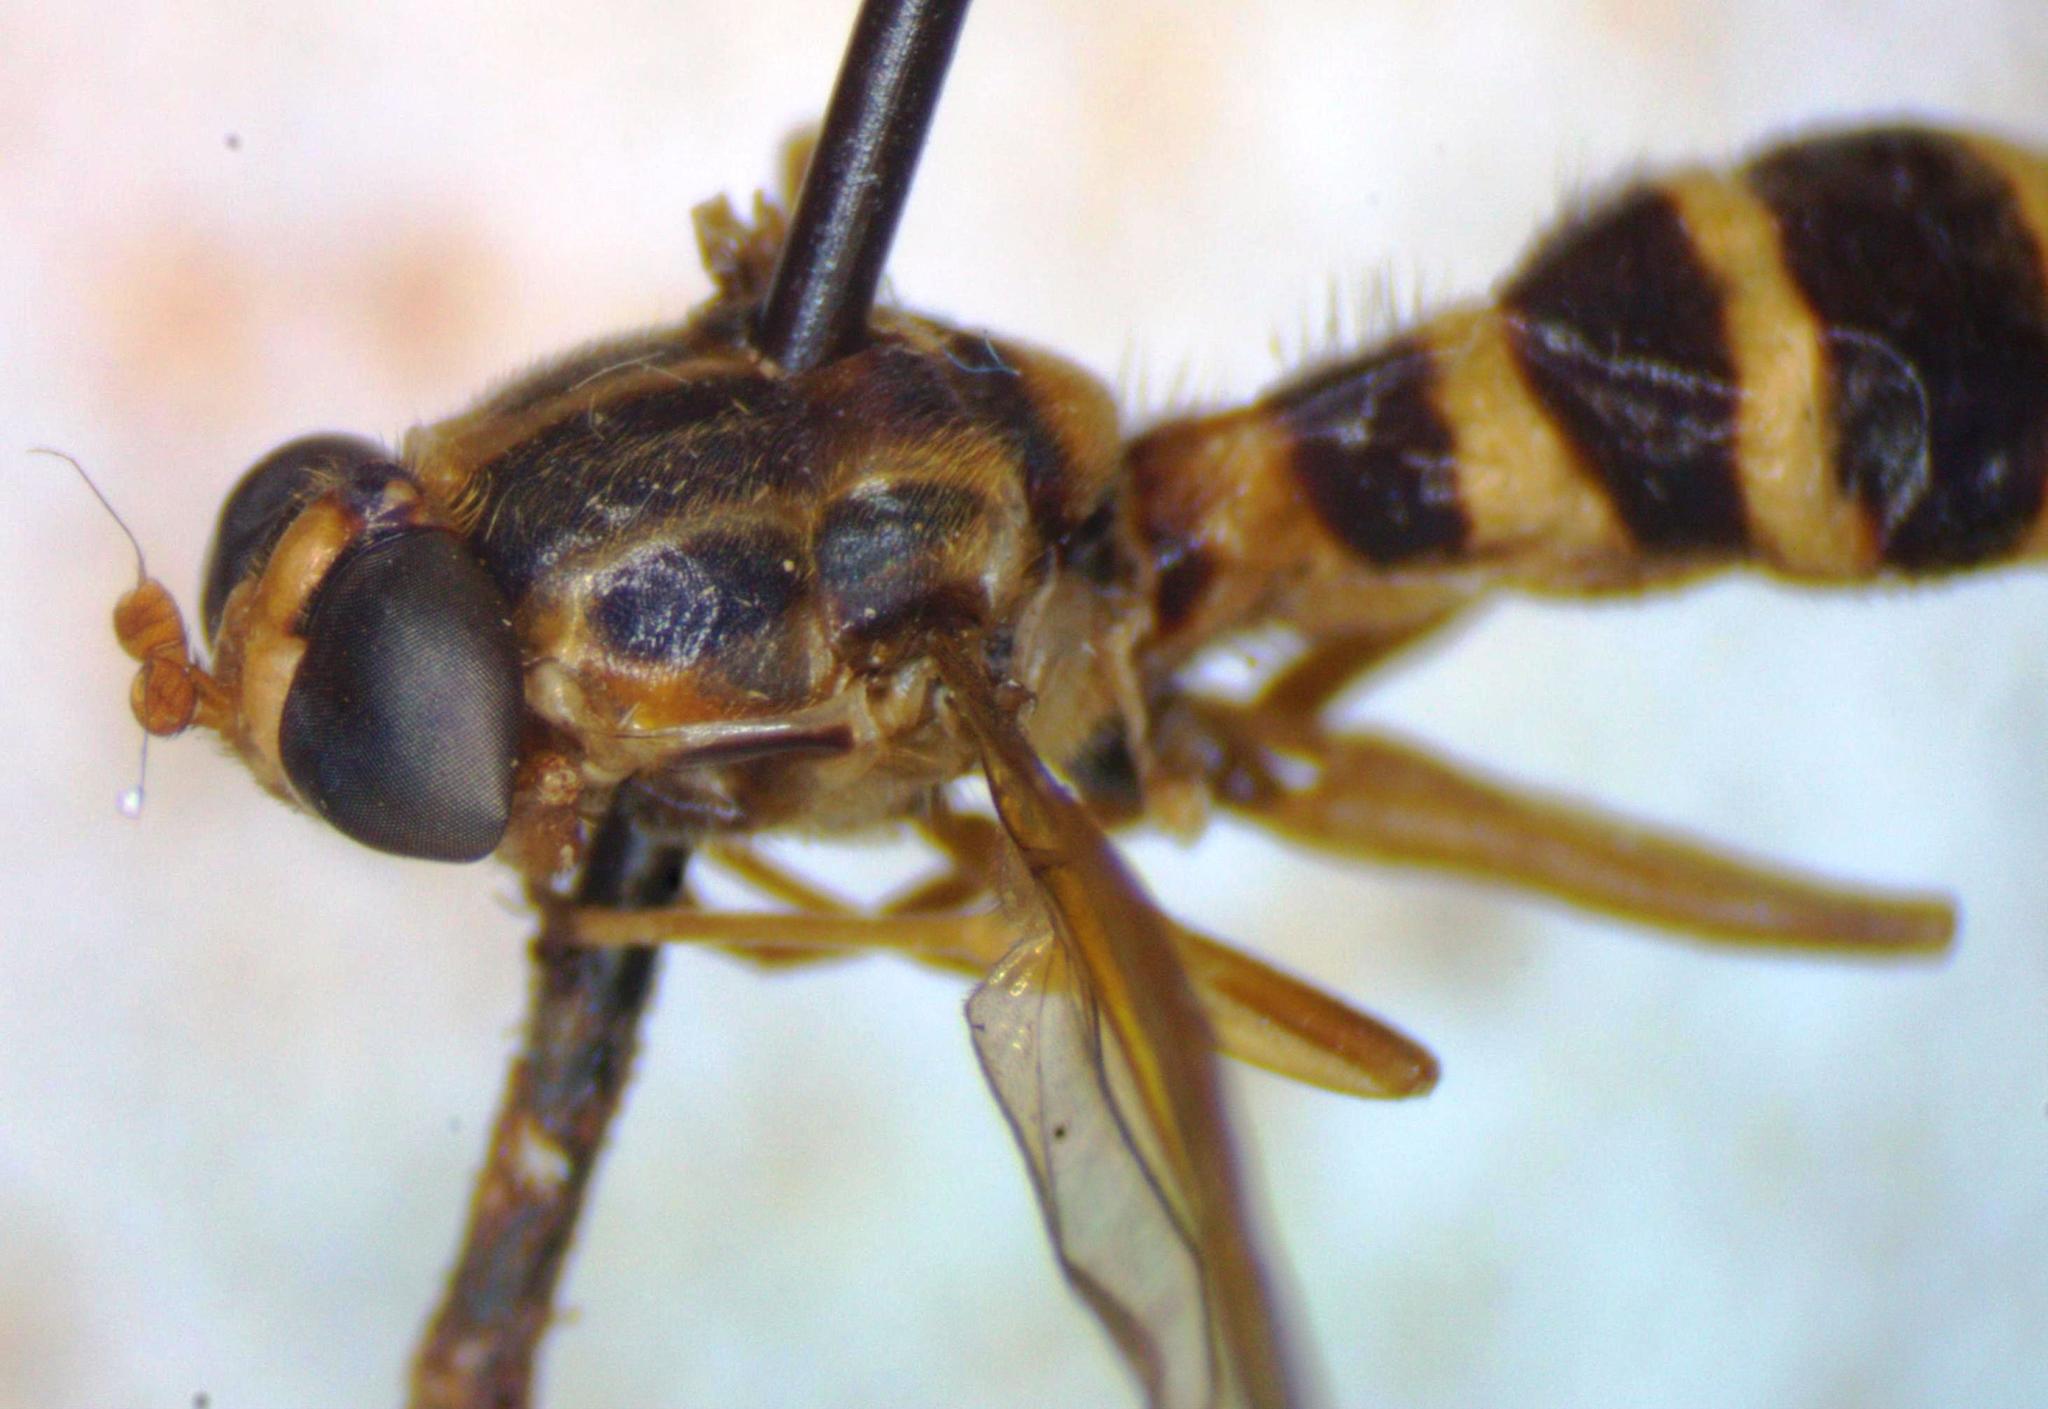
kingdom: Animalia
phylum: Arthropoda
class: Insecta
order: Diptera
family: Stratiomyidae
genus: Acrochaeta
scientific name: Acrochaeta convexifrons
